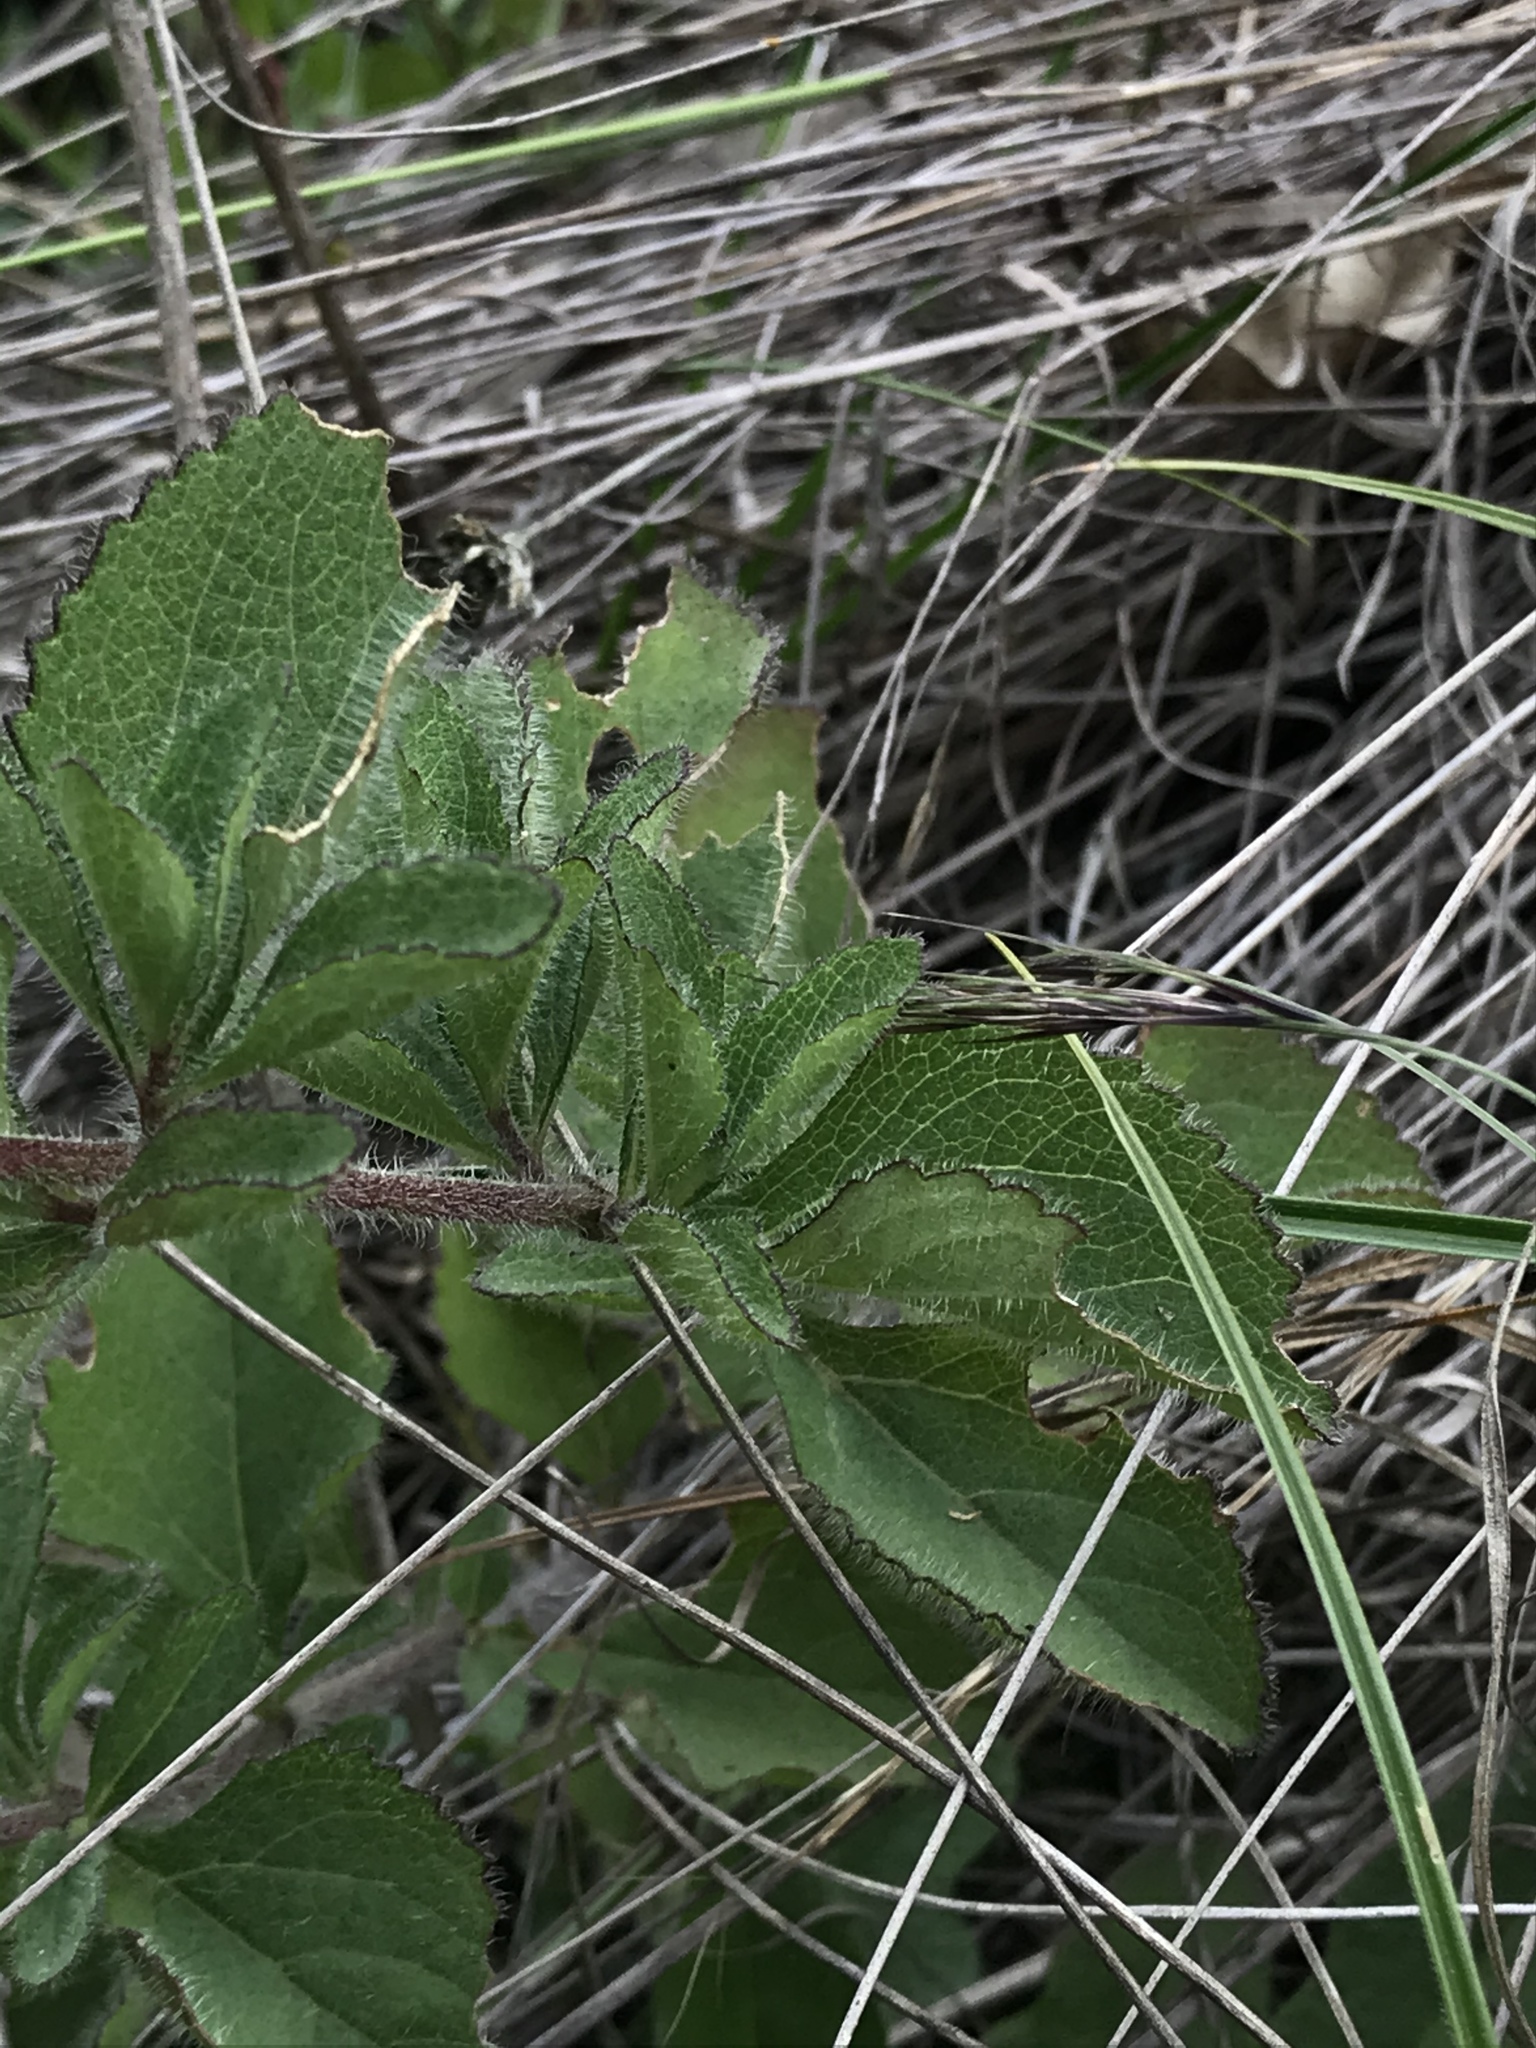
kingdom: Plantae
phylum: Tracheophyta
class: Magnoliopsida
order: Asterales
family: Asteraceae
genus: Stevia
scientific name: Stevia elatior
